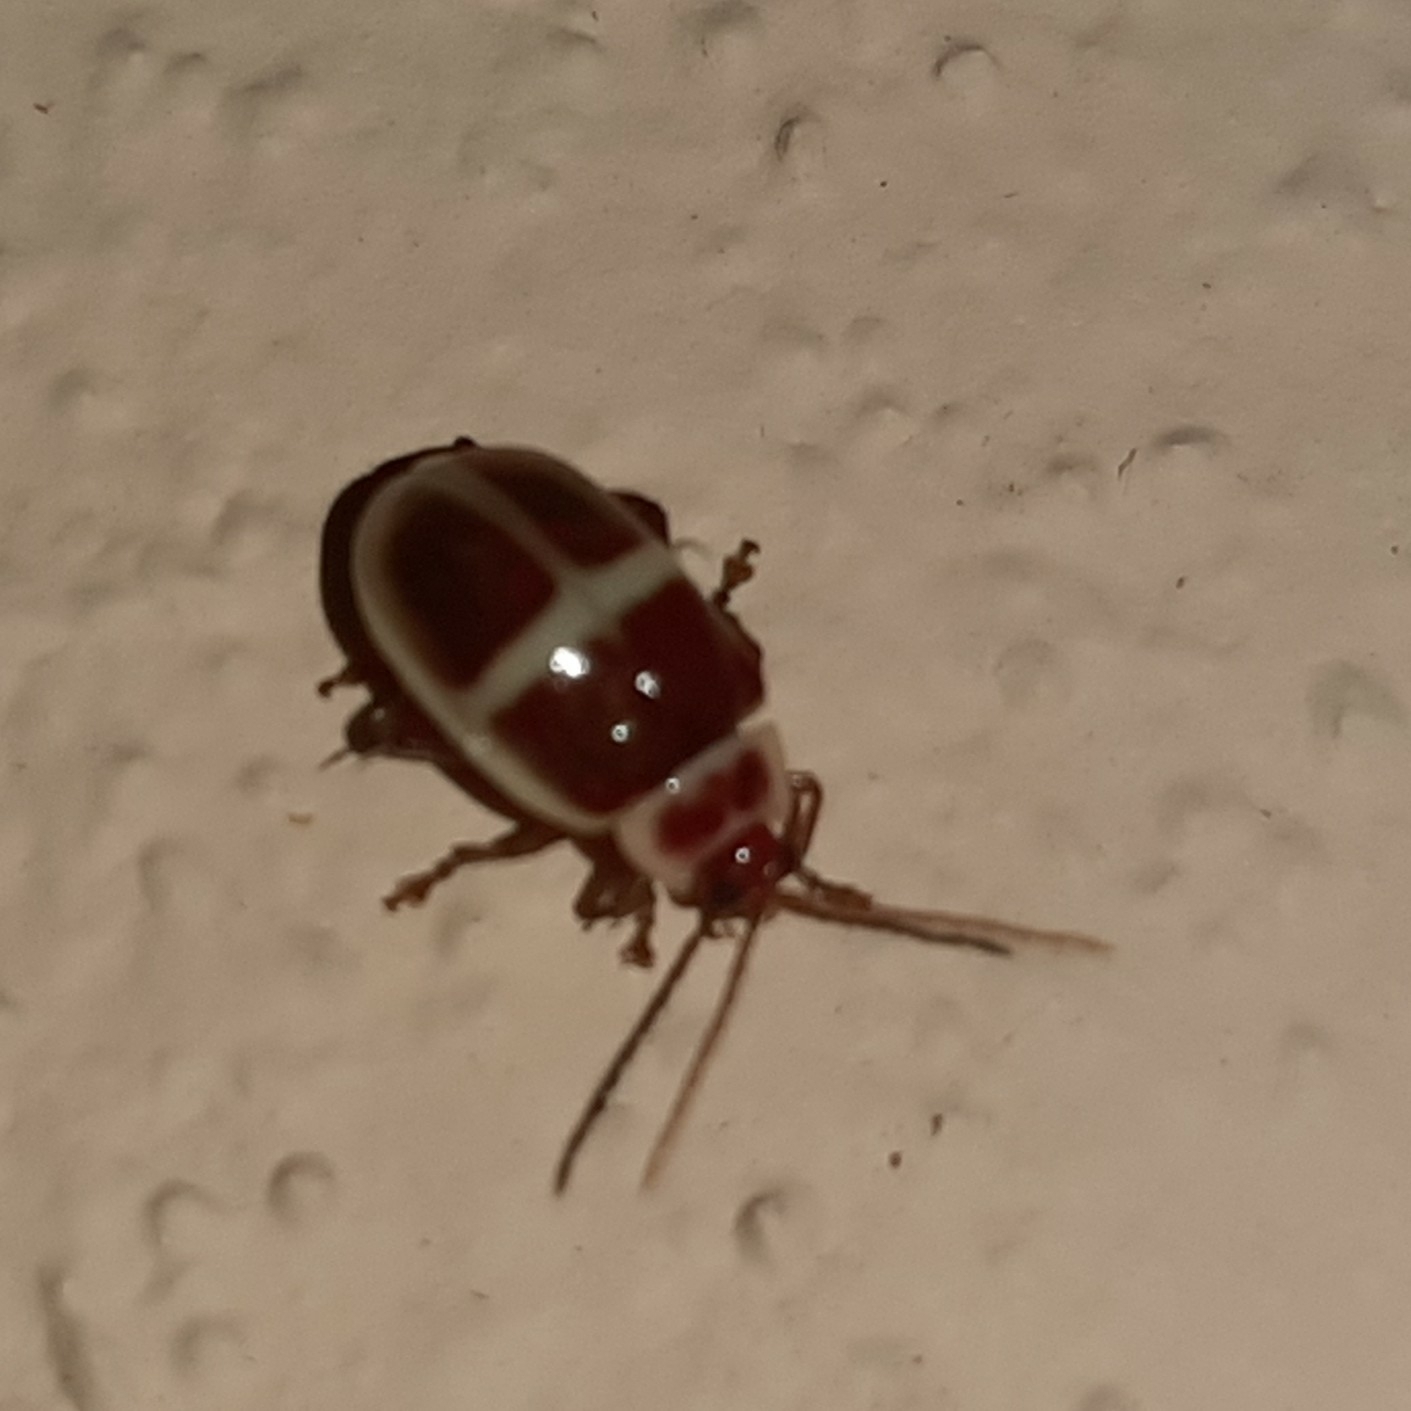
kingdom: Animalia
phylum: Arthropoda
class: Insecta
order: Coleoptera
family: Chrysomelidae
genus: Asphaera
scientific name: Asphaera discicollis
